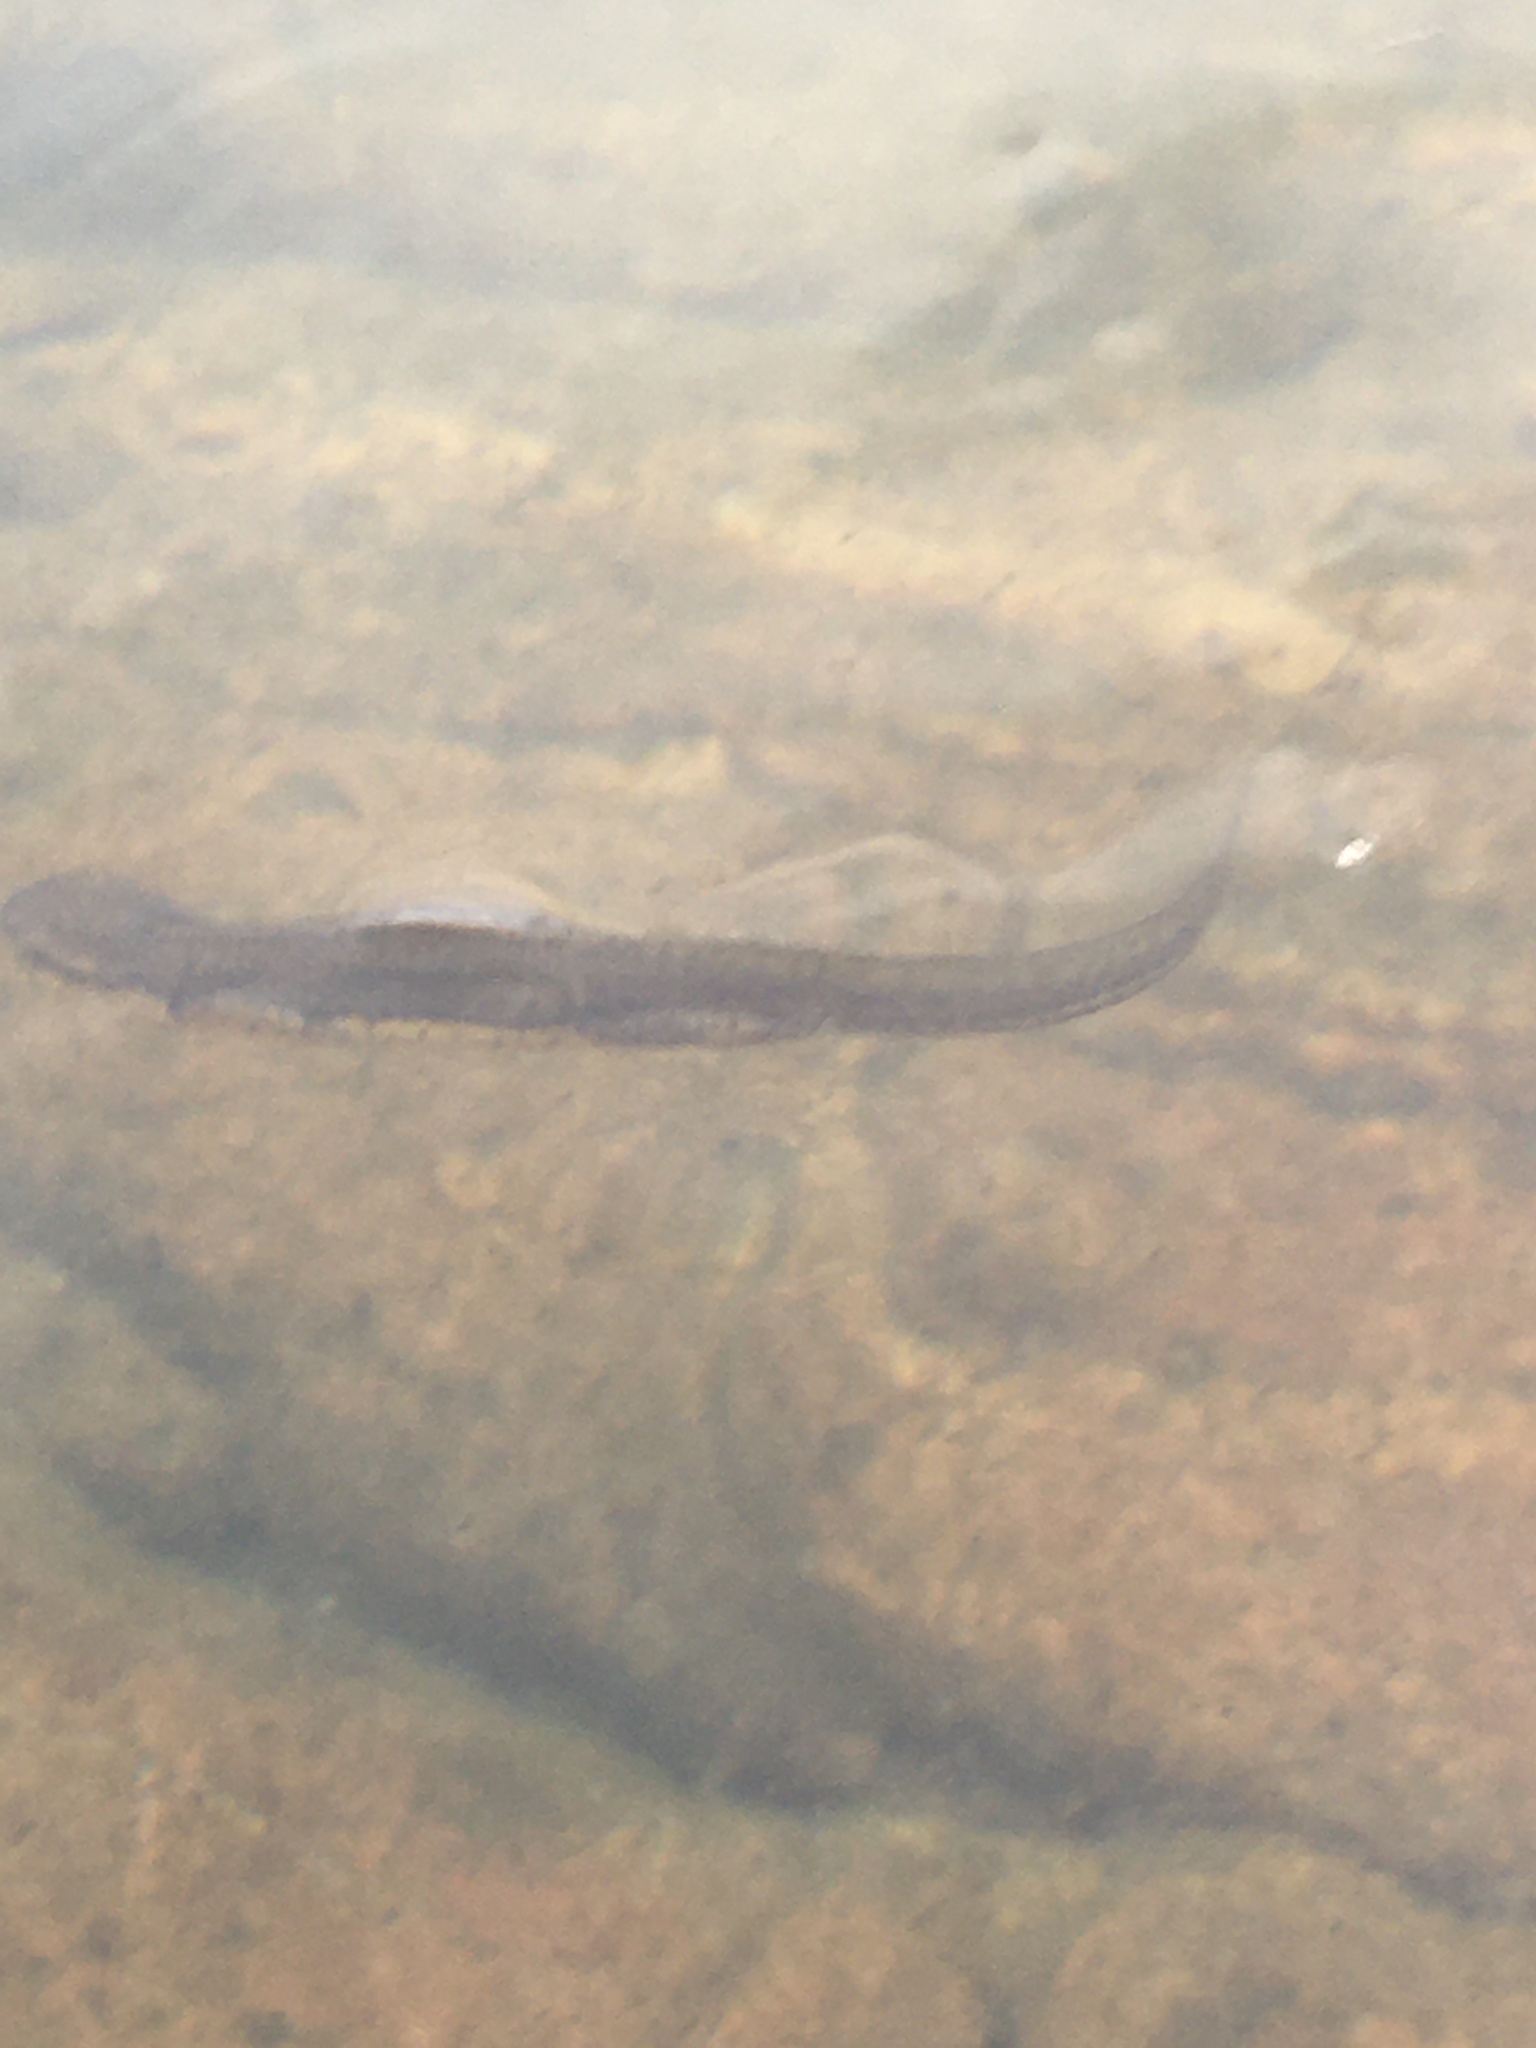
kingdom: Animalia
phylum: Chordata
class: Amphibia
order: Caudata
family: Salamandridae
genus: Notophthalmus
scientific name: Notophthalmus viridescens
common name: Eastern newt
